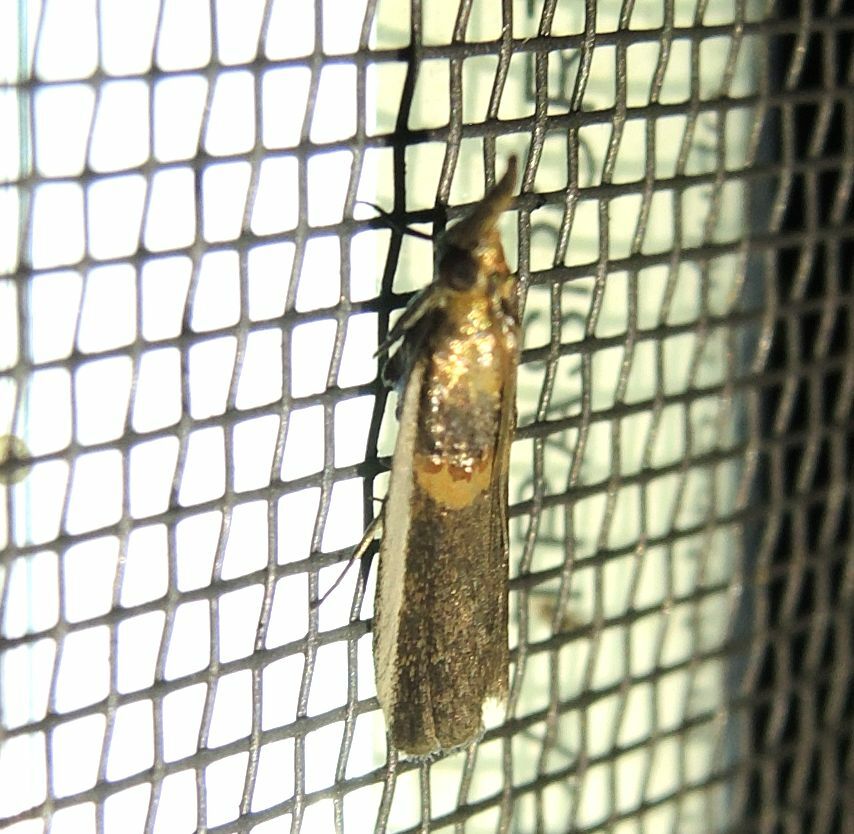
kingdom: Animalia
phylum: Arthropoda
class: Insecta
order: Lepidoptera
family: Pyralidae
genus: Etiella
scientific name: Etiella zinckenella
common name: Gold-banded etiella moth
